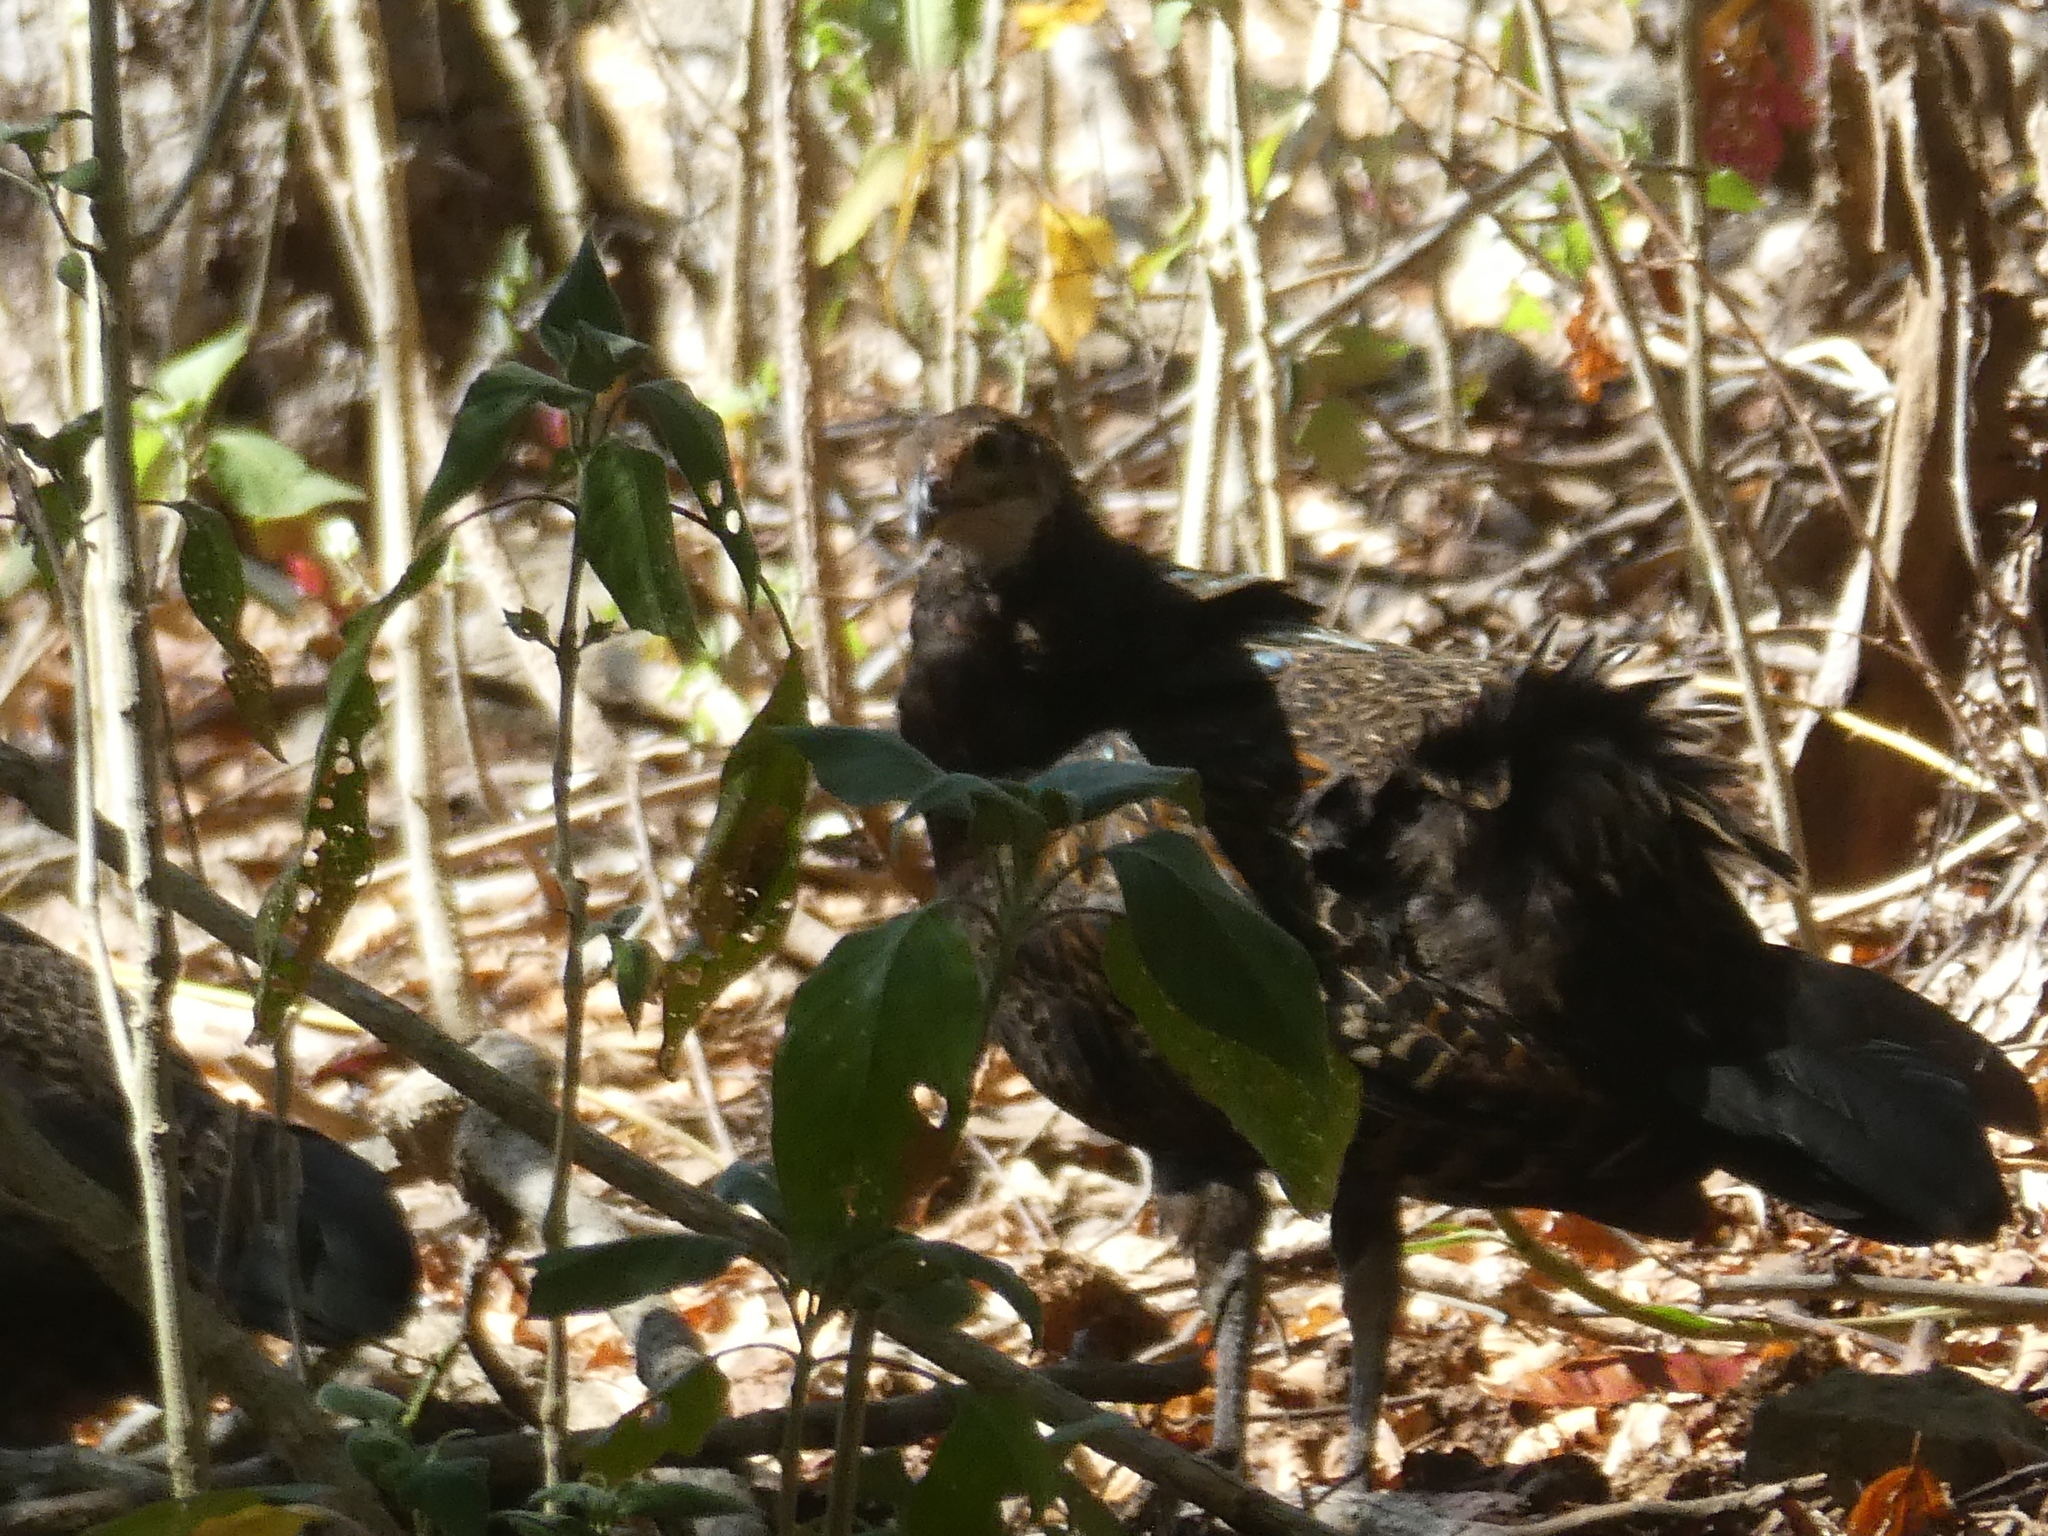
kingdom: Animalia
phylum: Chordata
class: Aves
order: Galliformes
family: Phasianidae
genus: Gallus
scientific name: Gallus varius
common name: Green junglefowl
